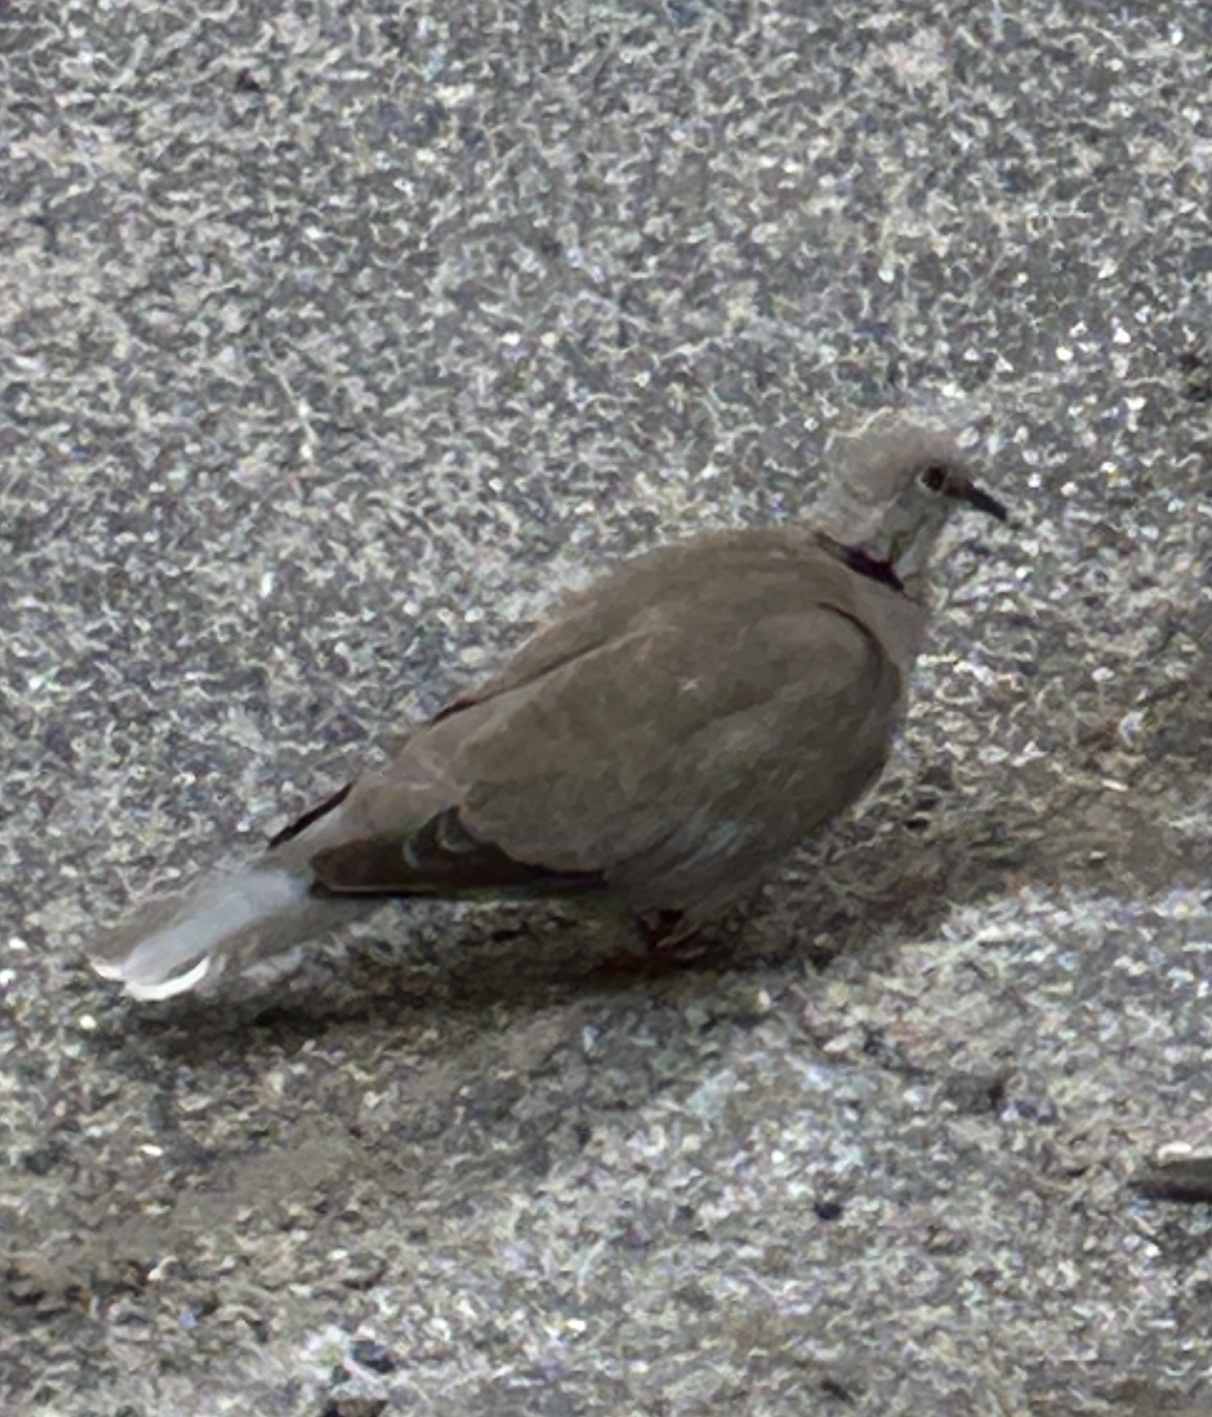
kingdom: Animalia
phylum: Chordata
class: Aves
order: Columbiformes
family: Columbidae
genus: Streptopelia
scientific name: Streptopelia decaocto
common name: Eurasian collared dove
